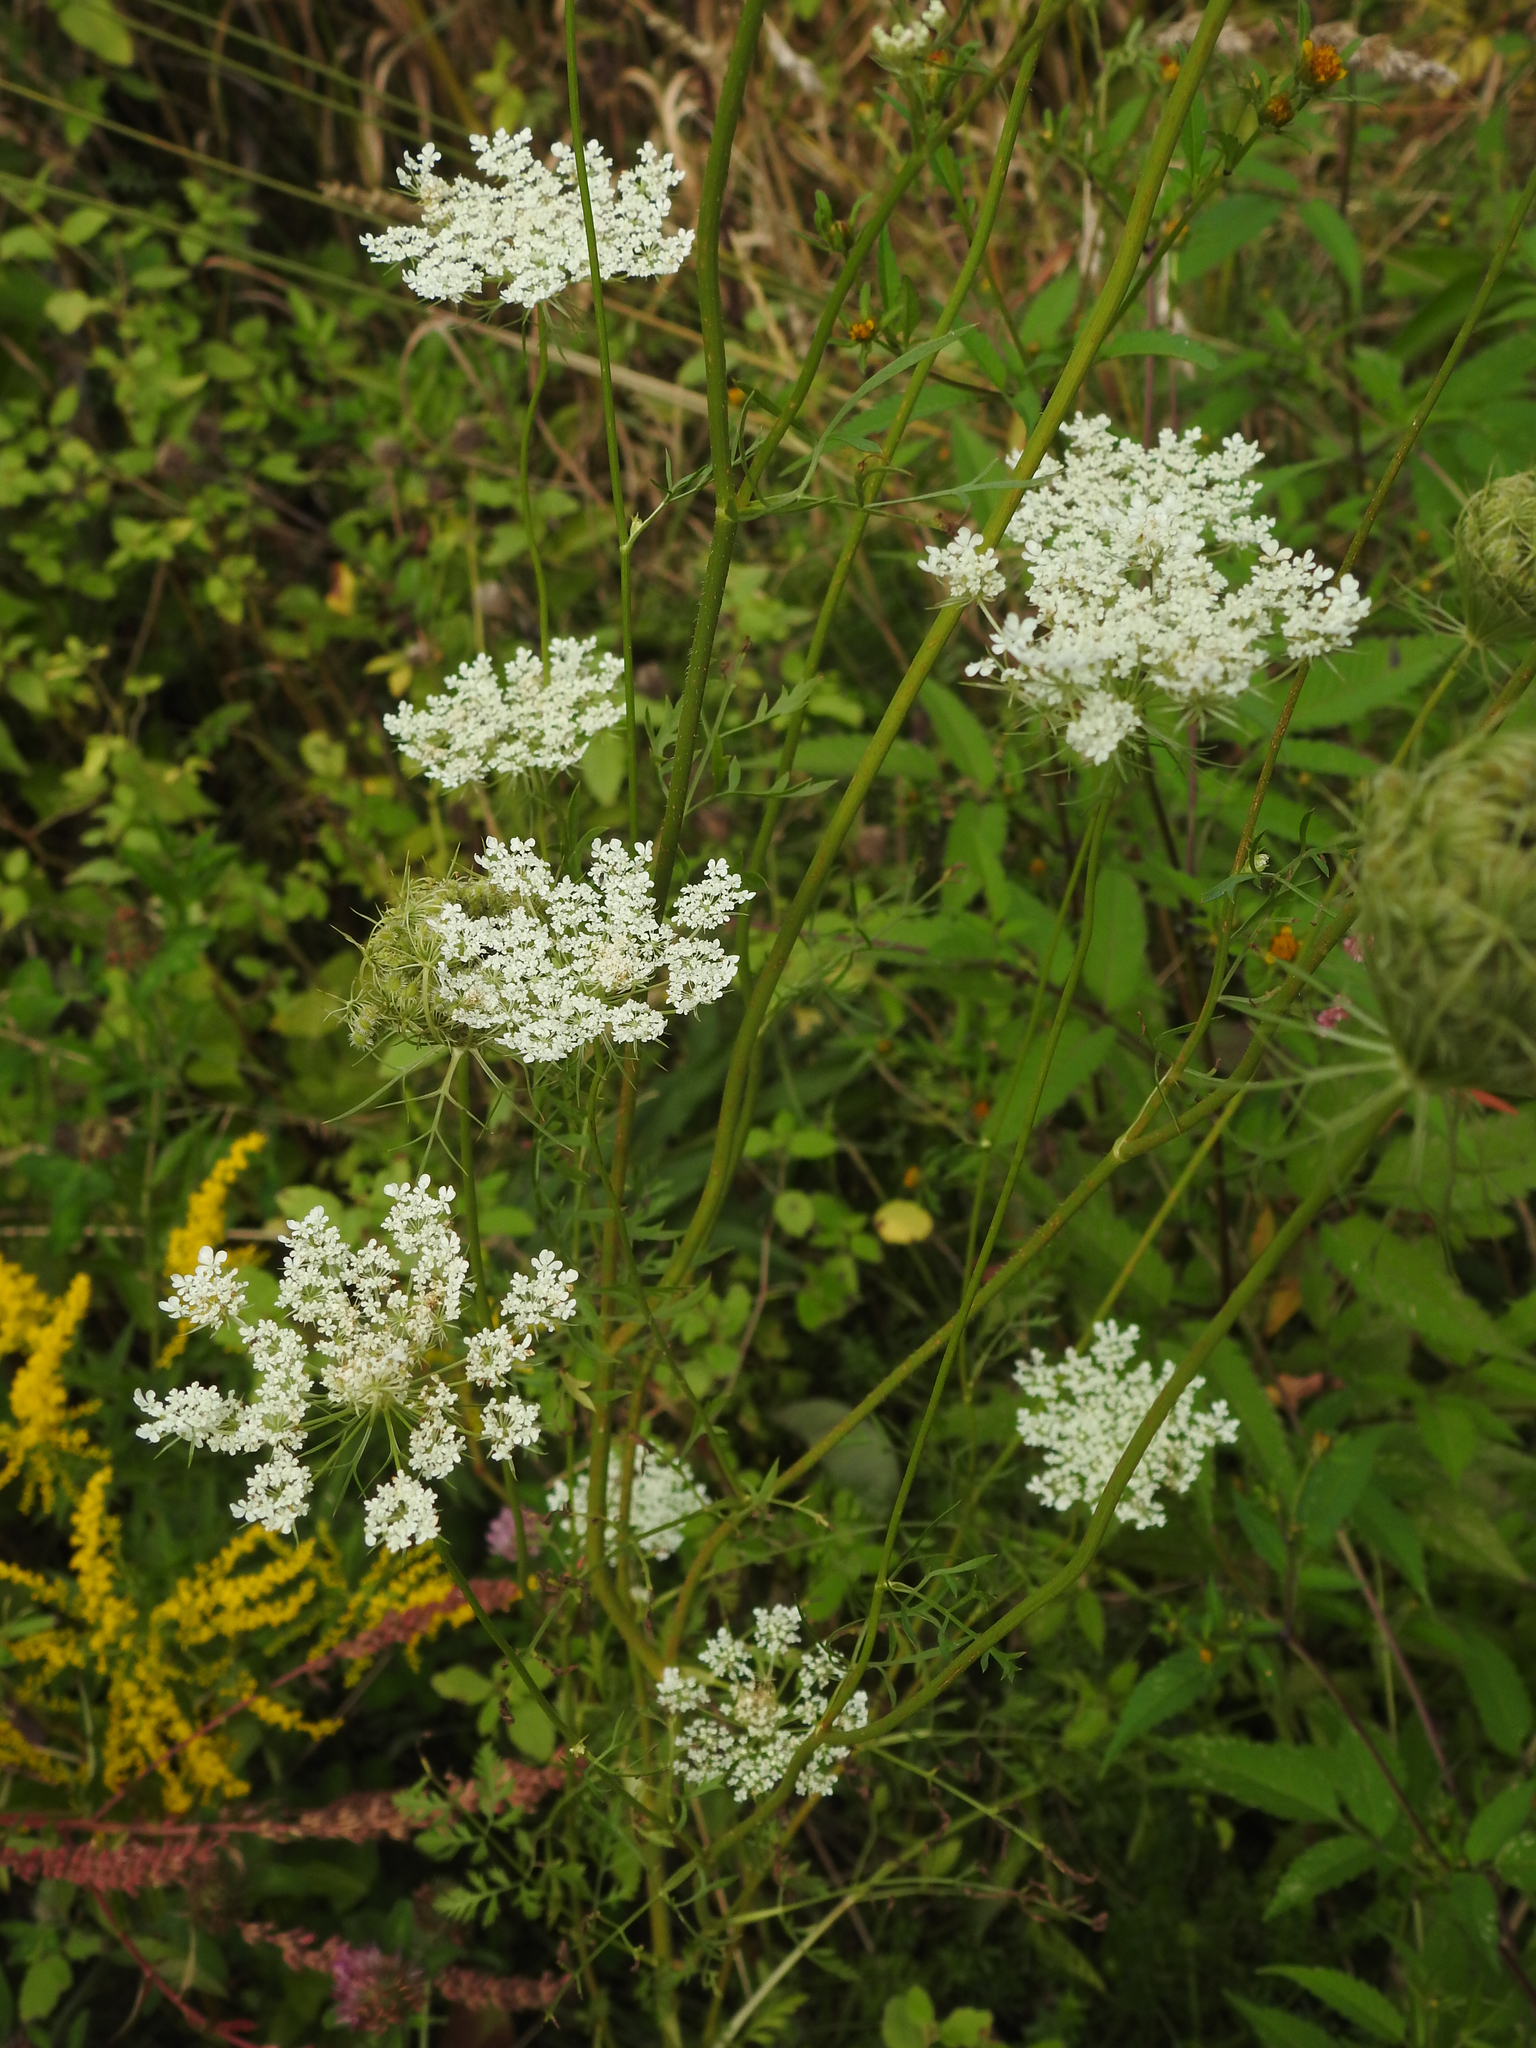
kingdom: Plantae
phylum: Tracheophyta
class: Magnoliopsida
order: Apiales
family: Apiaceae
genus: Daucus
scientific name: Daucus carota
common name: Wild carrot
